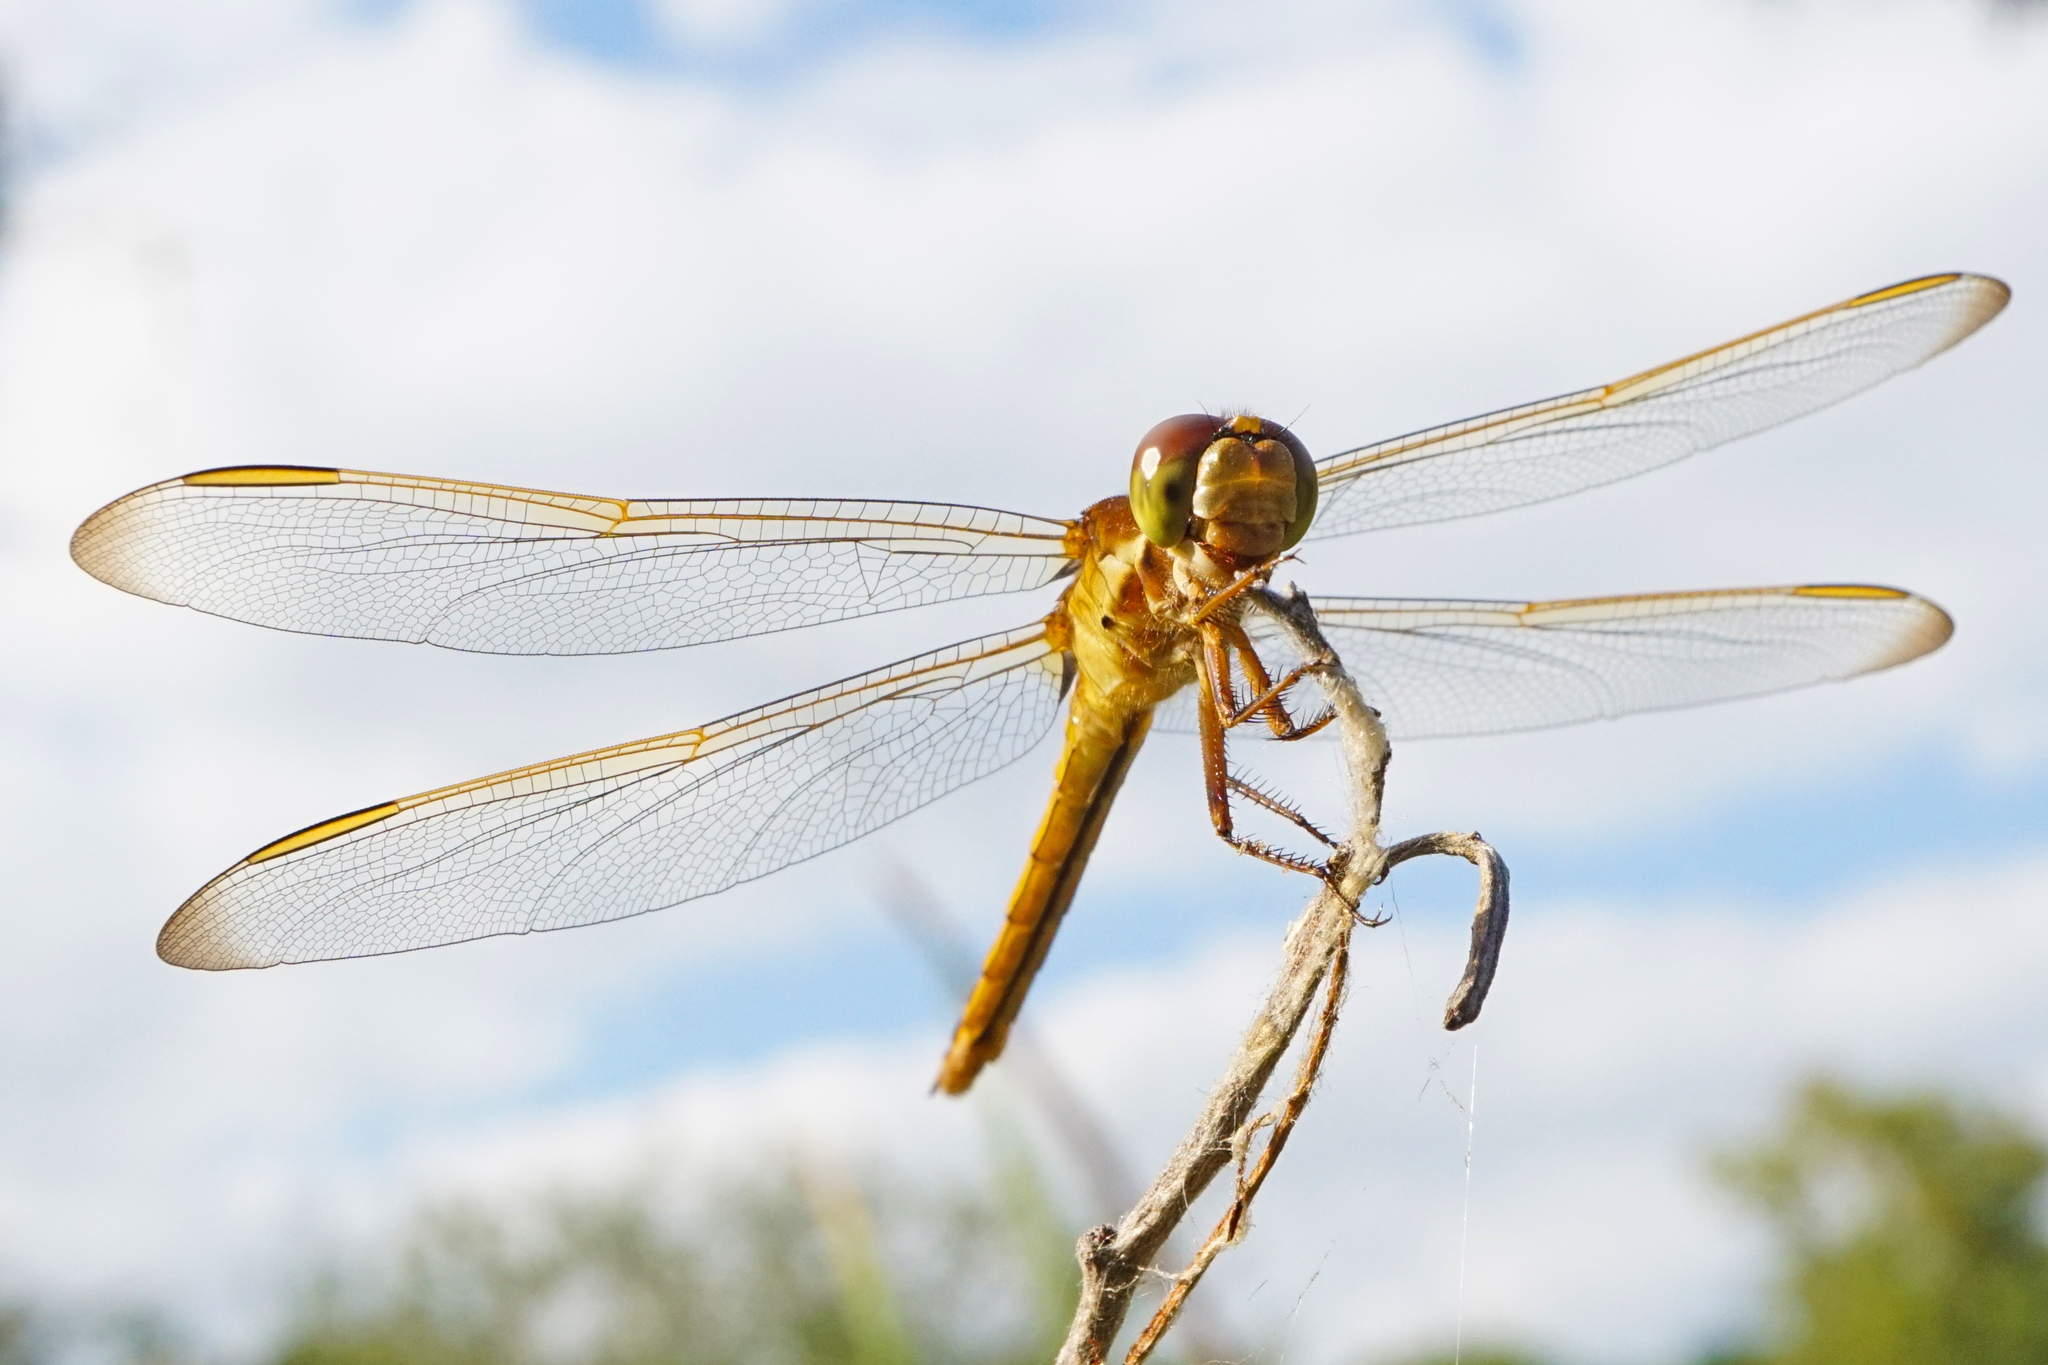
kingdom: Animalia
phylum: Arthropoda
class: Insecta
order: Odonata
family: Libellulidae
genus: Libellula
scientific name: Libellula needhami
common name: Needham's skimmer
